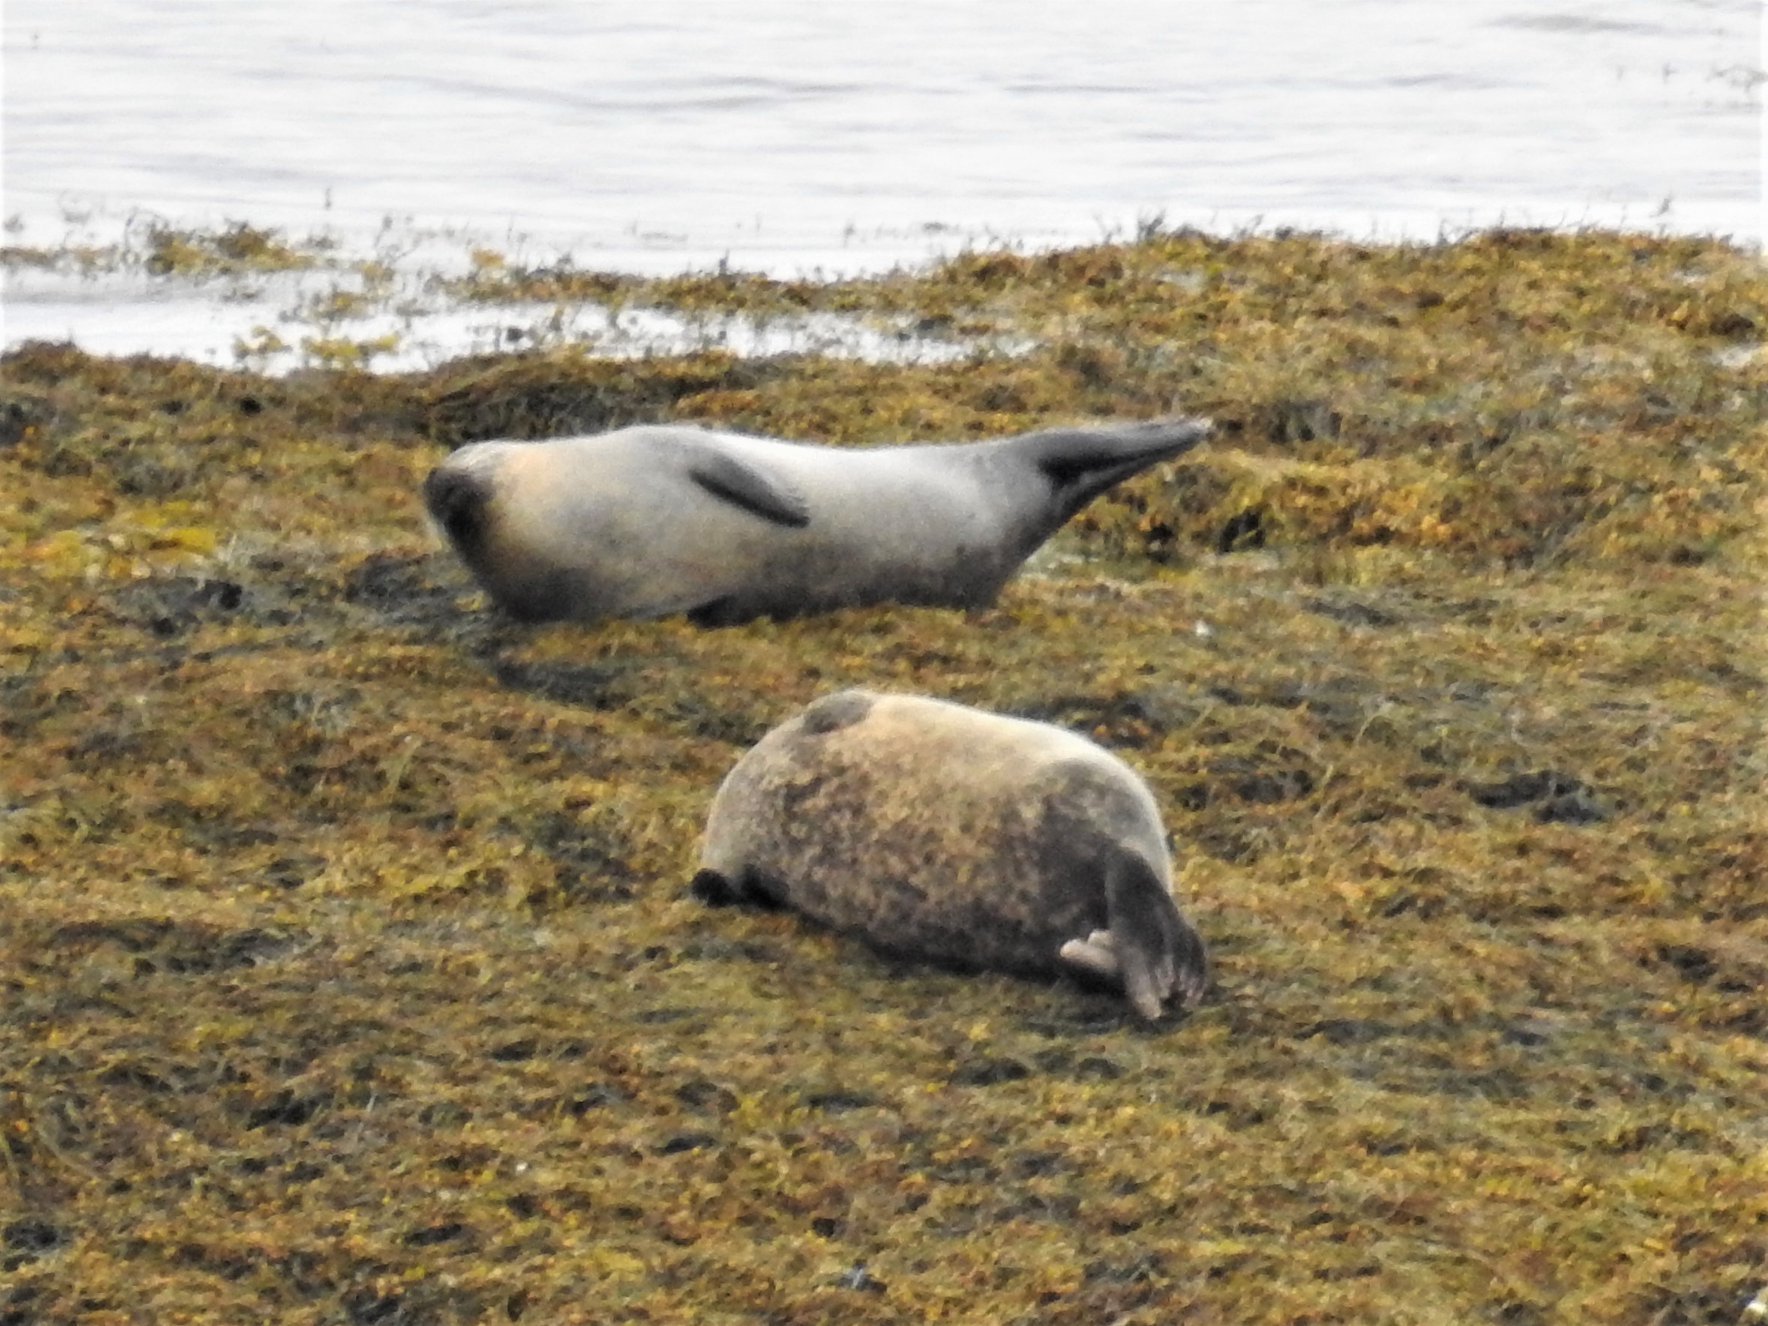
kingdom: Animalia
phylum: Chordata
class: Mammalia
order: Carnivora
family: Phocidae
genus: Phoca
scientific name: Phoca vitulina
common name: Harbor seal
